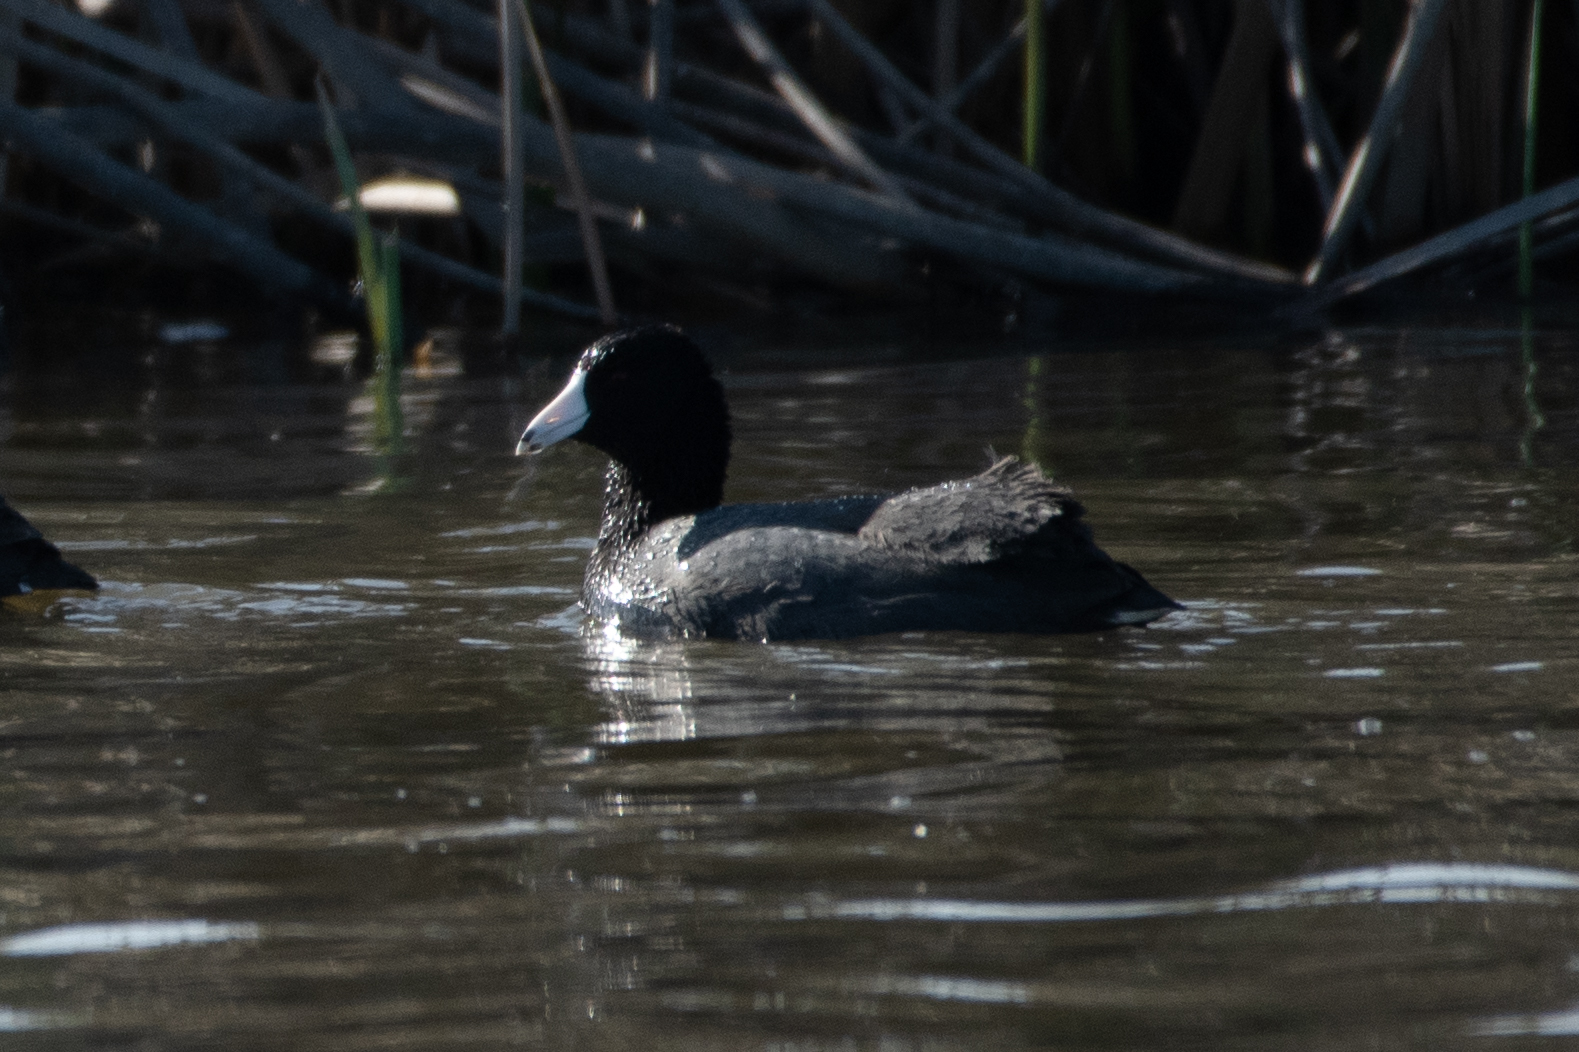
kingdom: Animalia
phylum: Chordata
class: Aves
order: Gruiformes
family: Rallidae
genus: Fulica
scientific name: Fulica americana
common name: American coot
